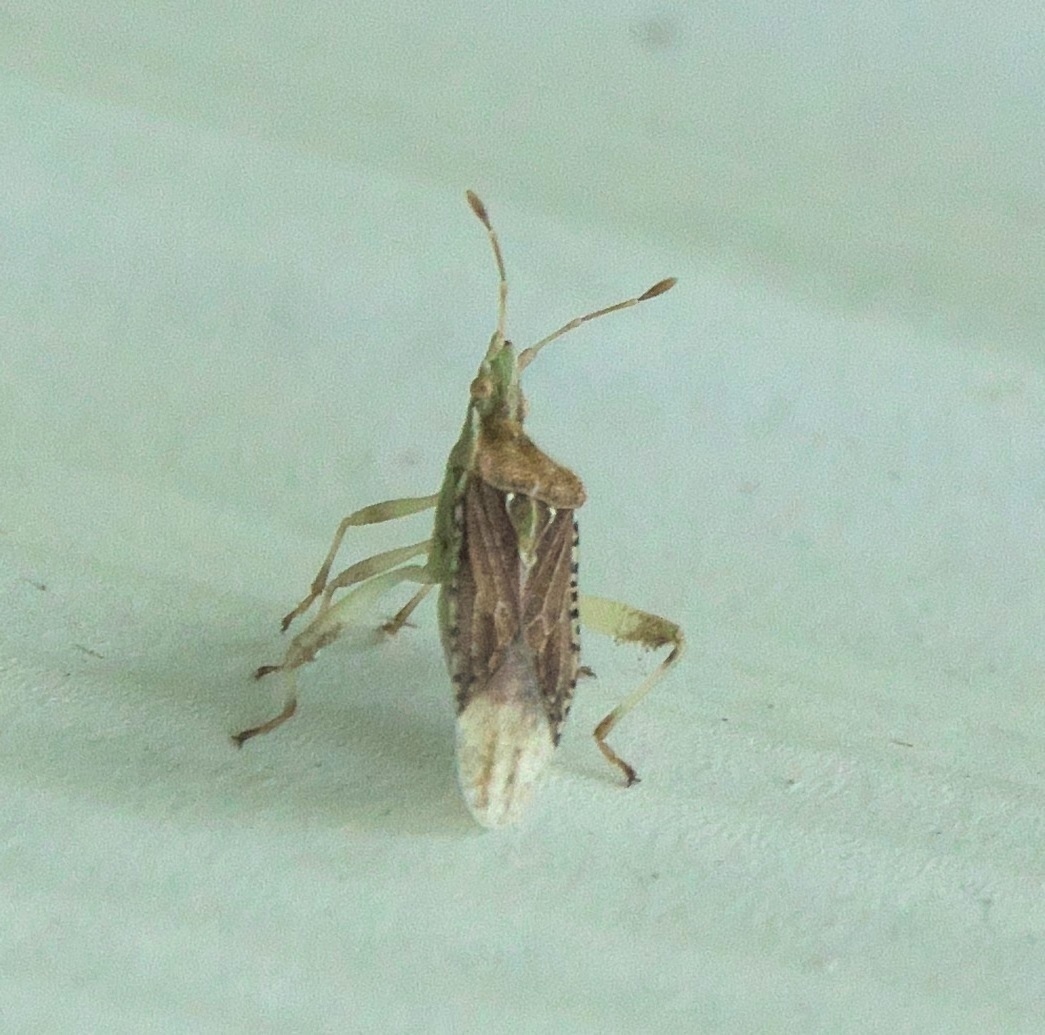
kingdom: Animalia
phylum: Arthropoda
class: Insecta
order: Hemiptera
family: Rhopalidae
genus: Harmostes
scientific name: Harmostes fraterculus
